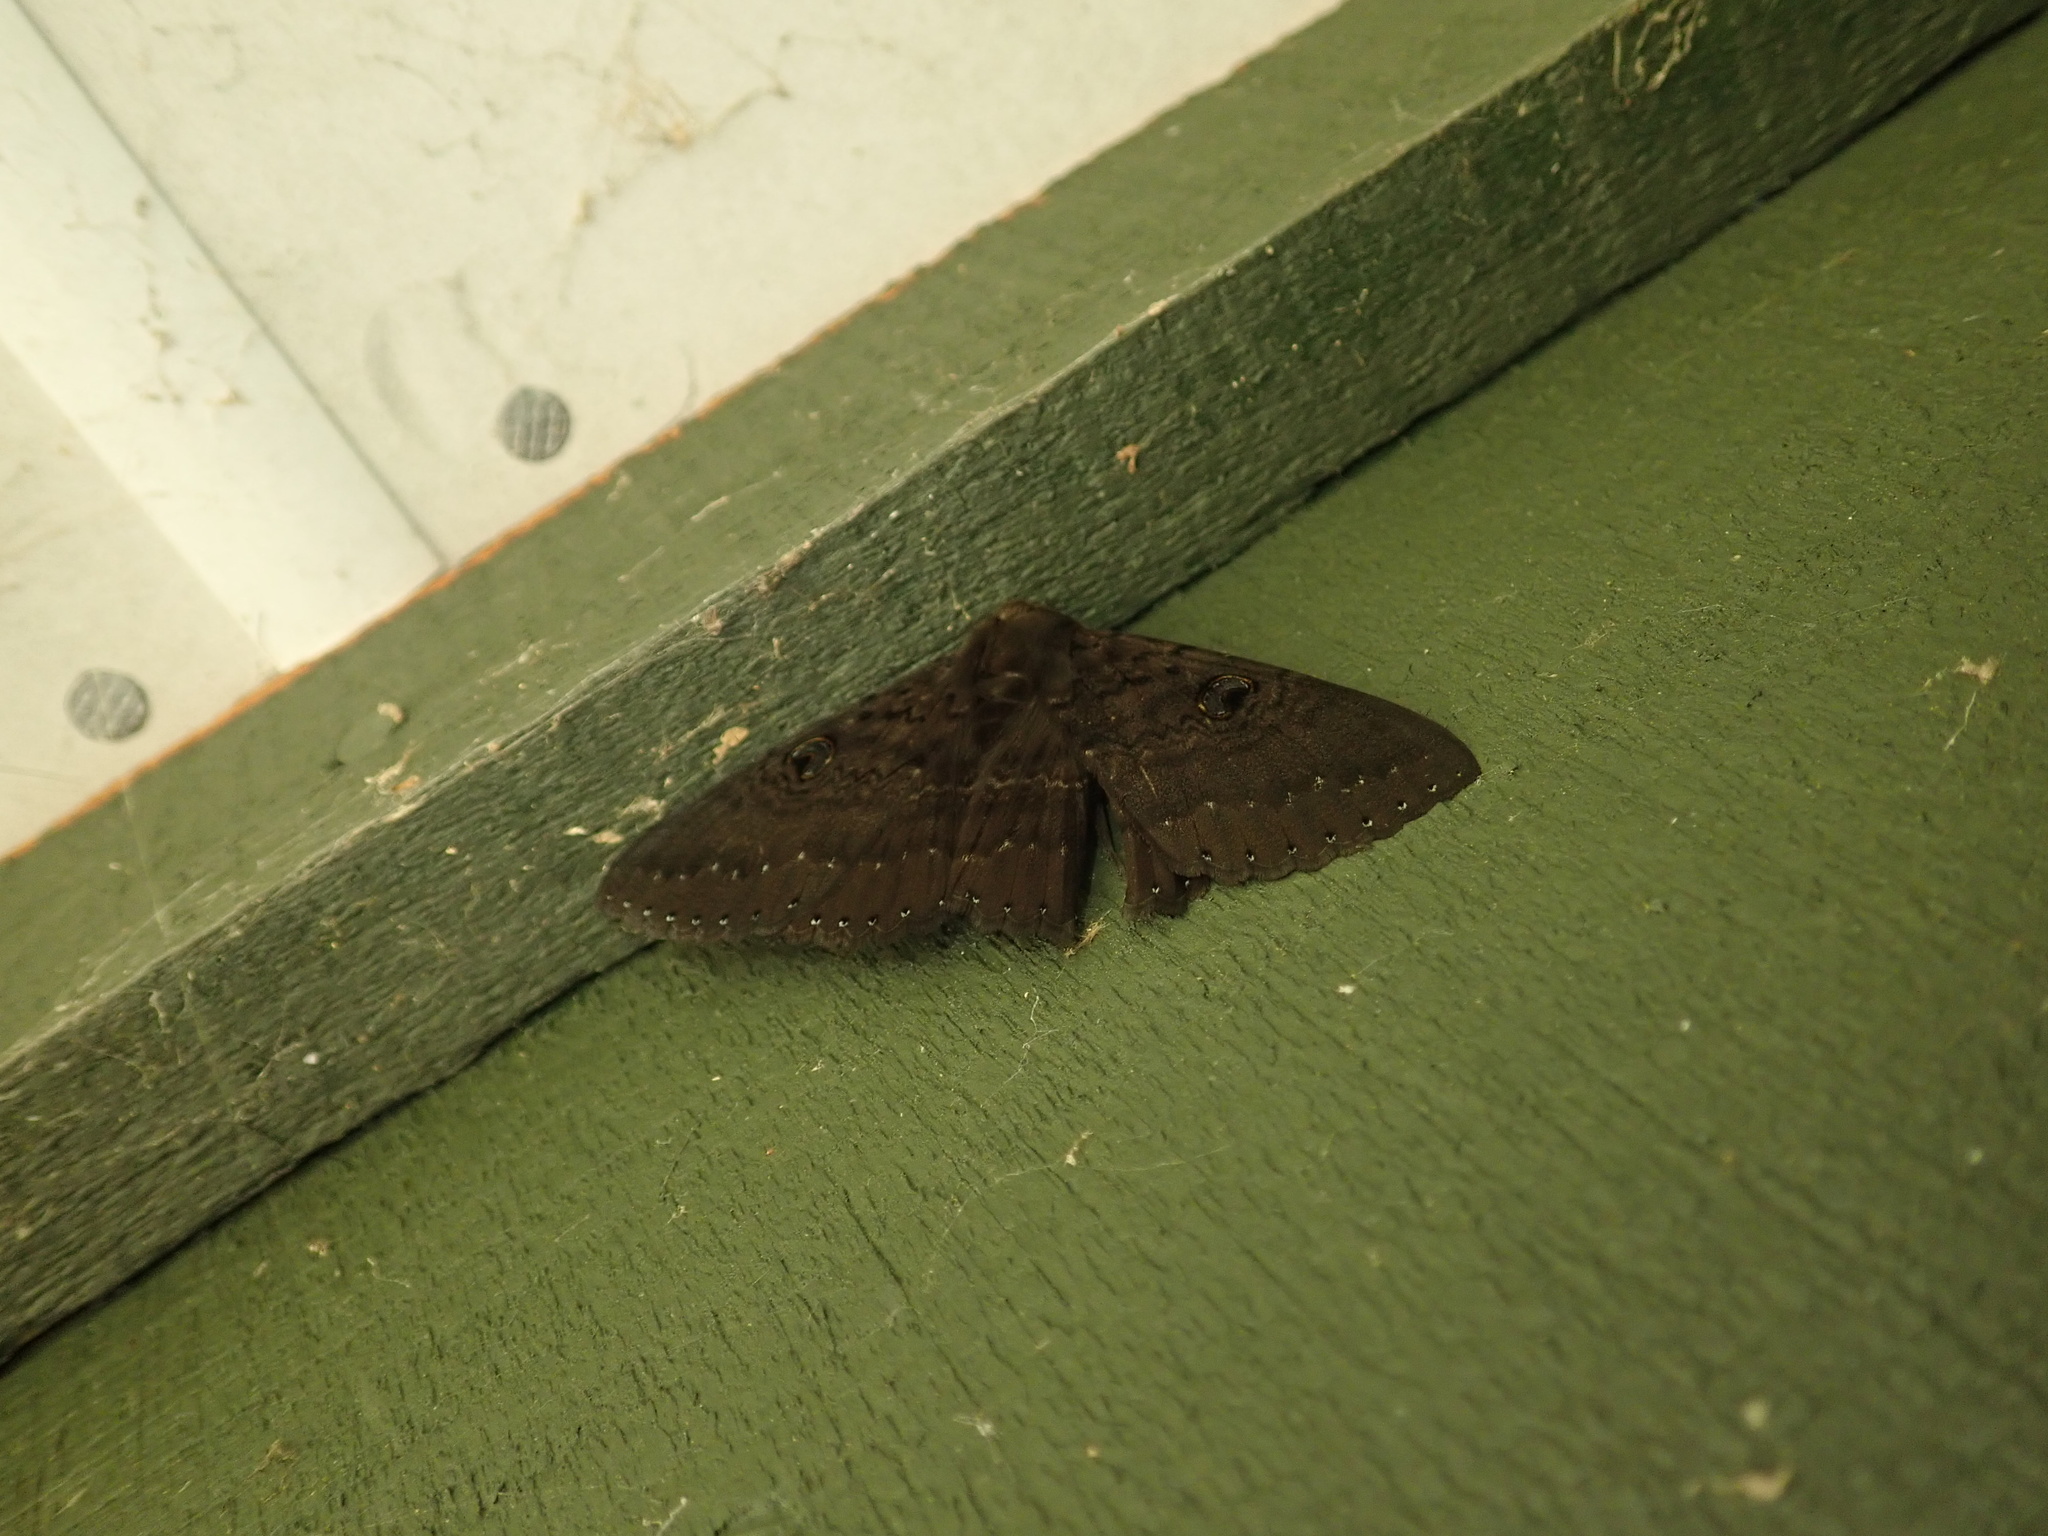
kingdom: Animalia
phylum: Arthropoda
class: Insecta
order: Lepidoptera
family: Erebidae
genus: Dasypodia
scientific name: Dasypodia cymatodes
